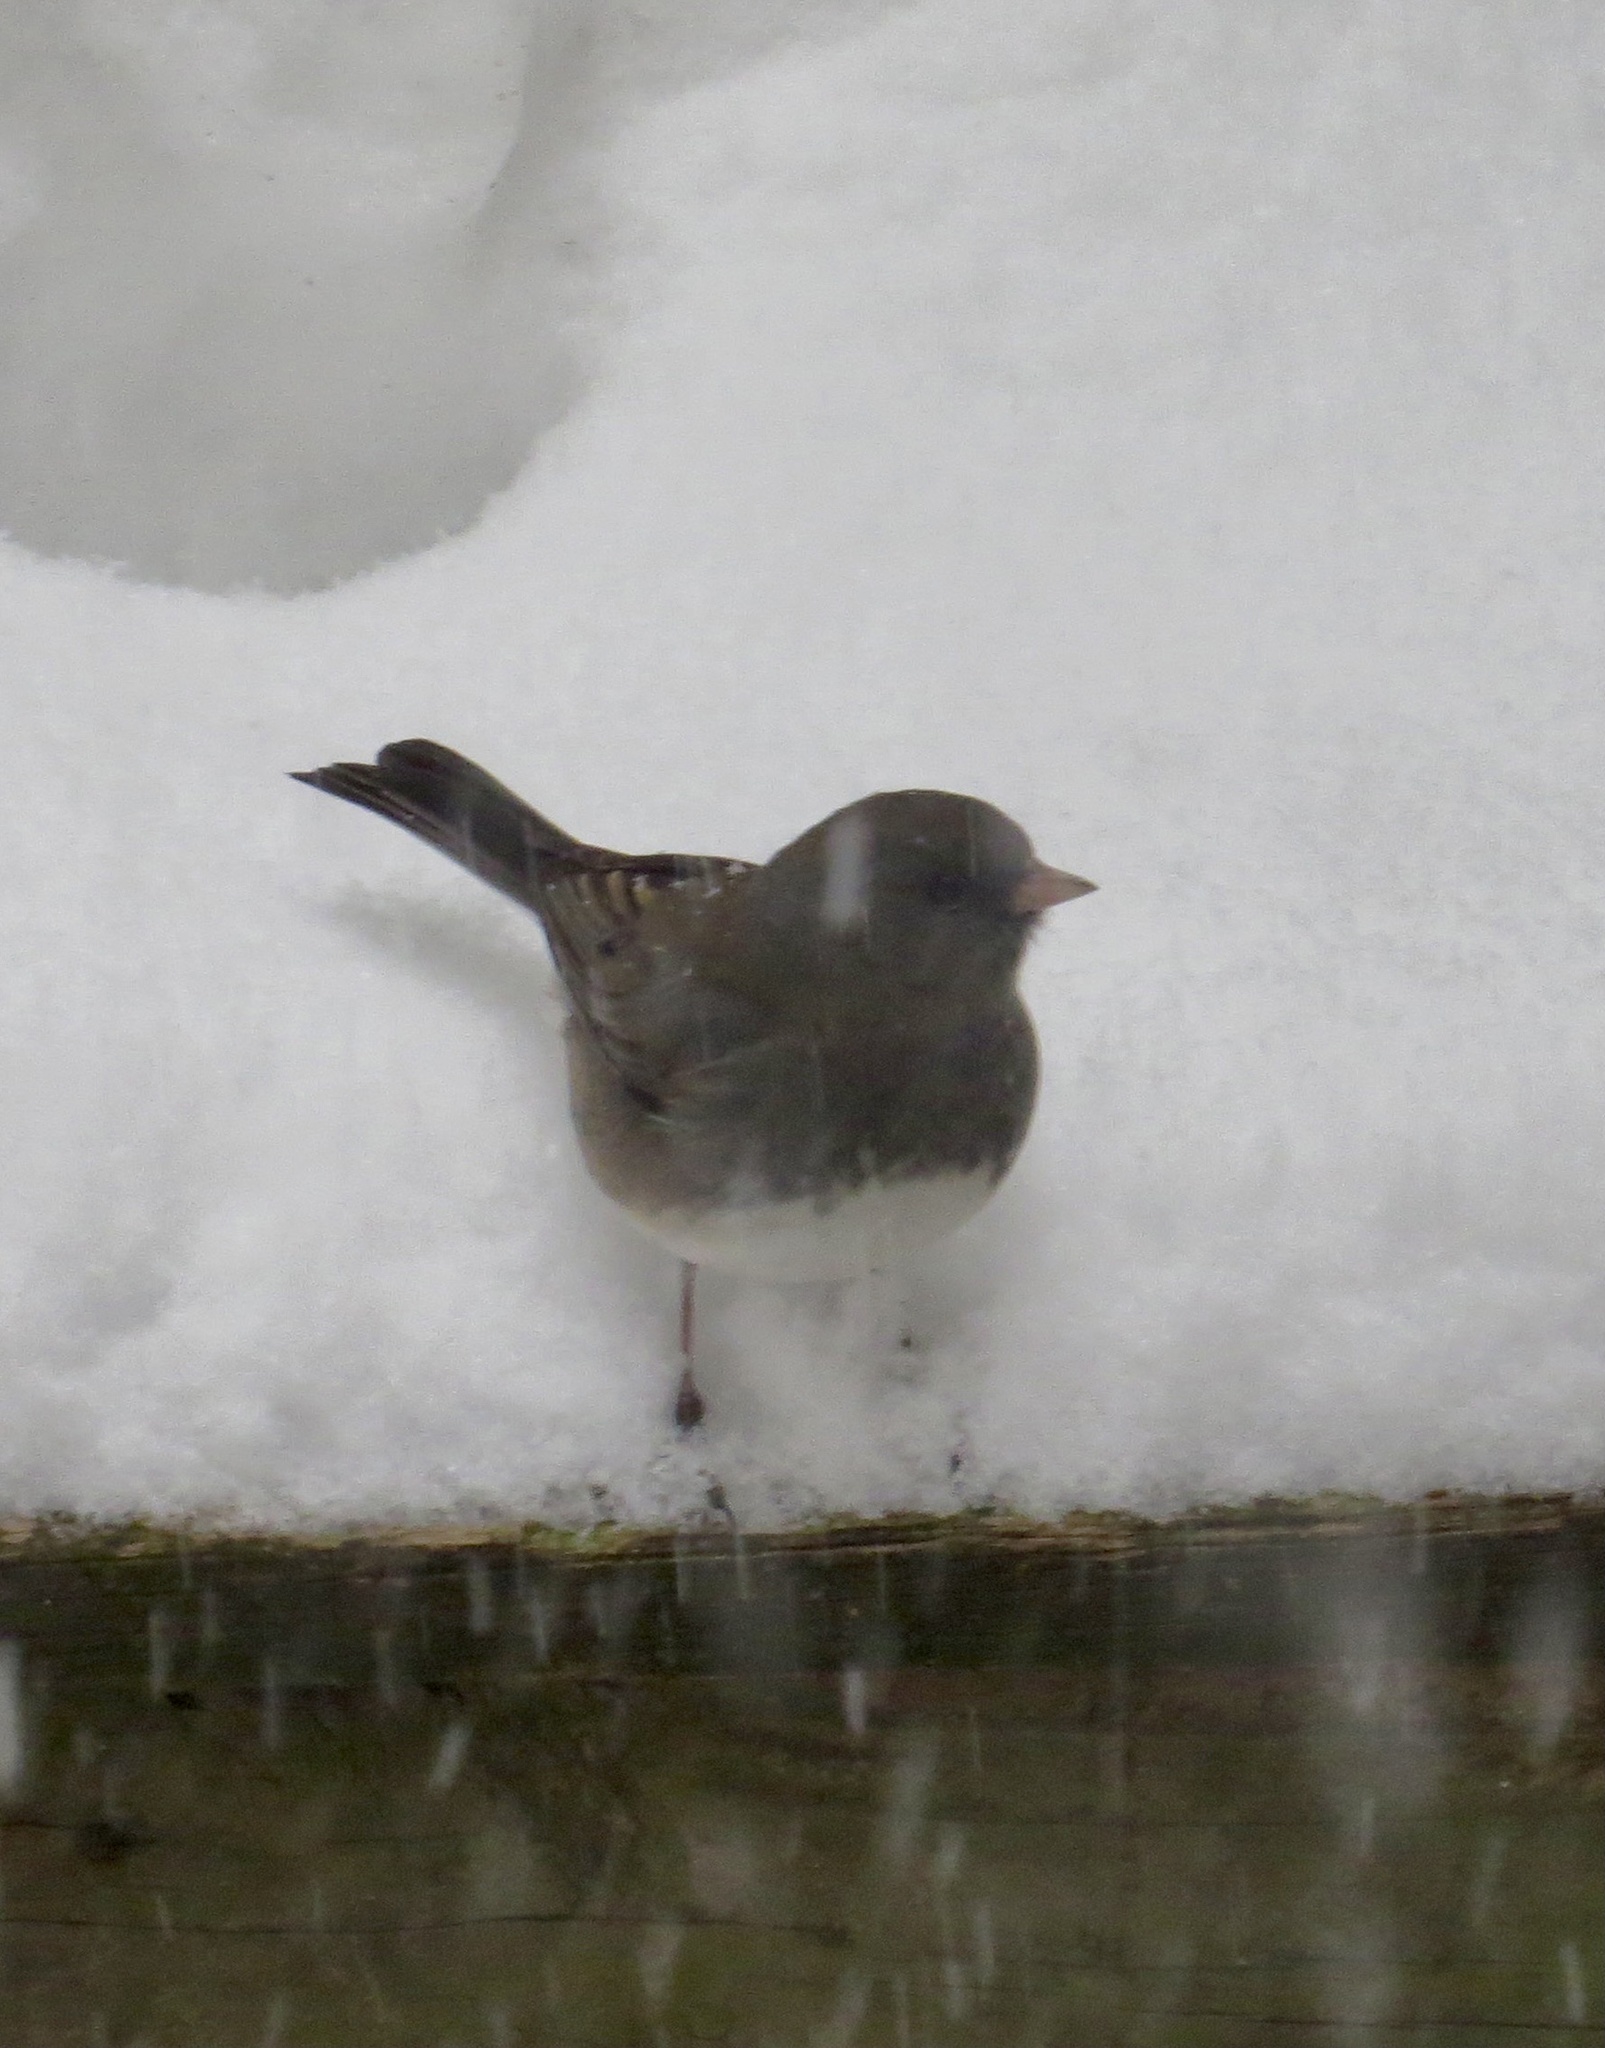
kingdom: Animalia
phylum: Chordata
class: Aves
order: Passeriformes
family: Passerellidae
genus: Junco
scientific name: Junco hyemalis
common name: Dark-eyed junco
